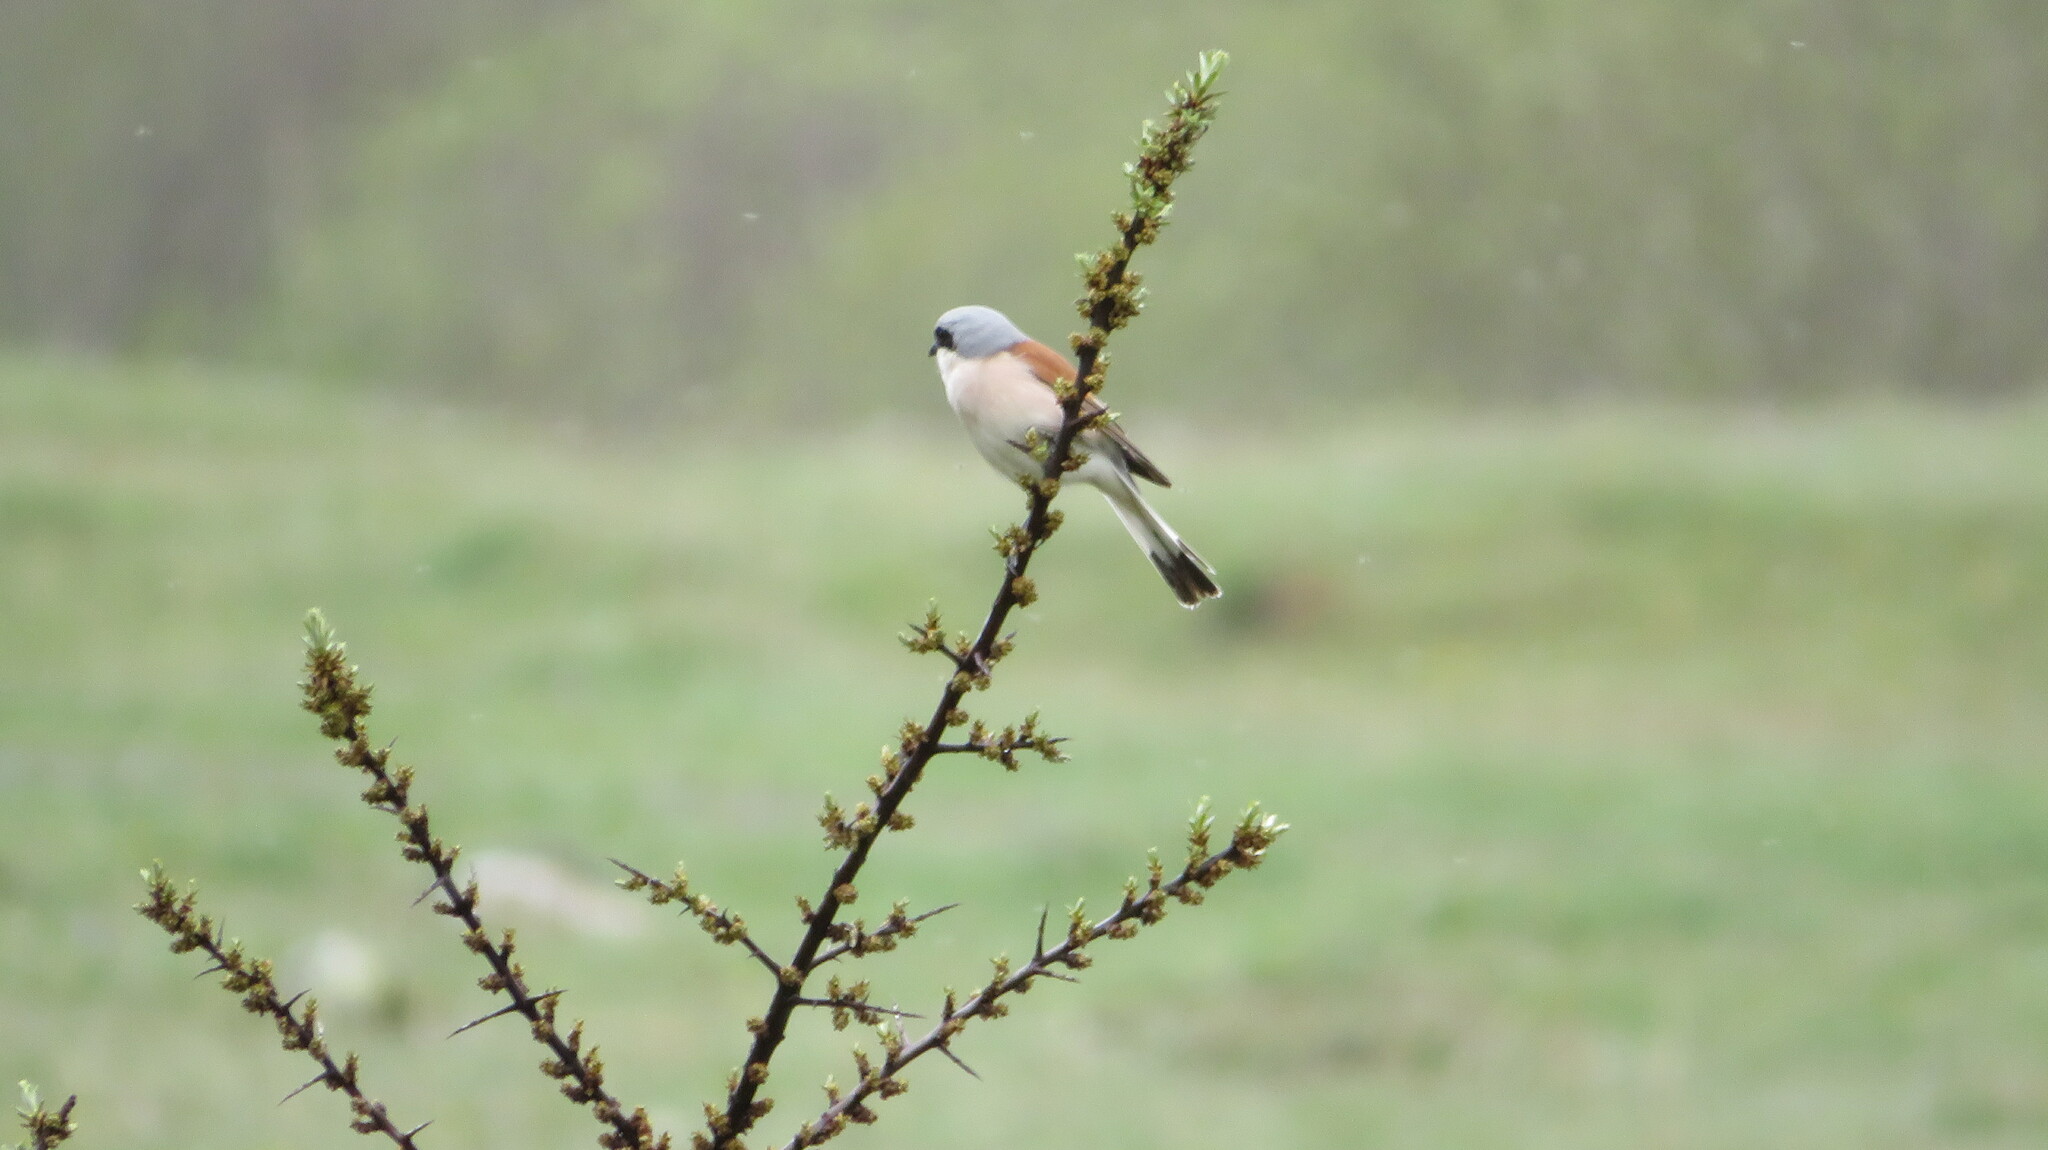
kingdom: Animalia
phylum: Chordata
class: Aves
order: Passeriformes
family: Laniidae
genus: Lanius
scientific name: Lanius collurio
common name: Red-backed shrike
